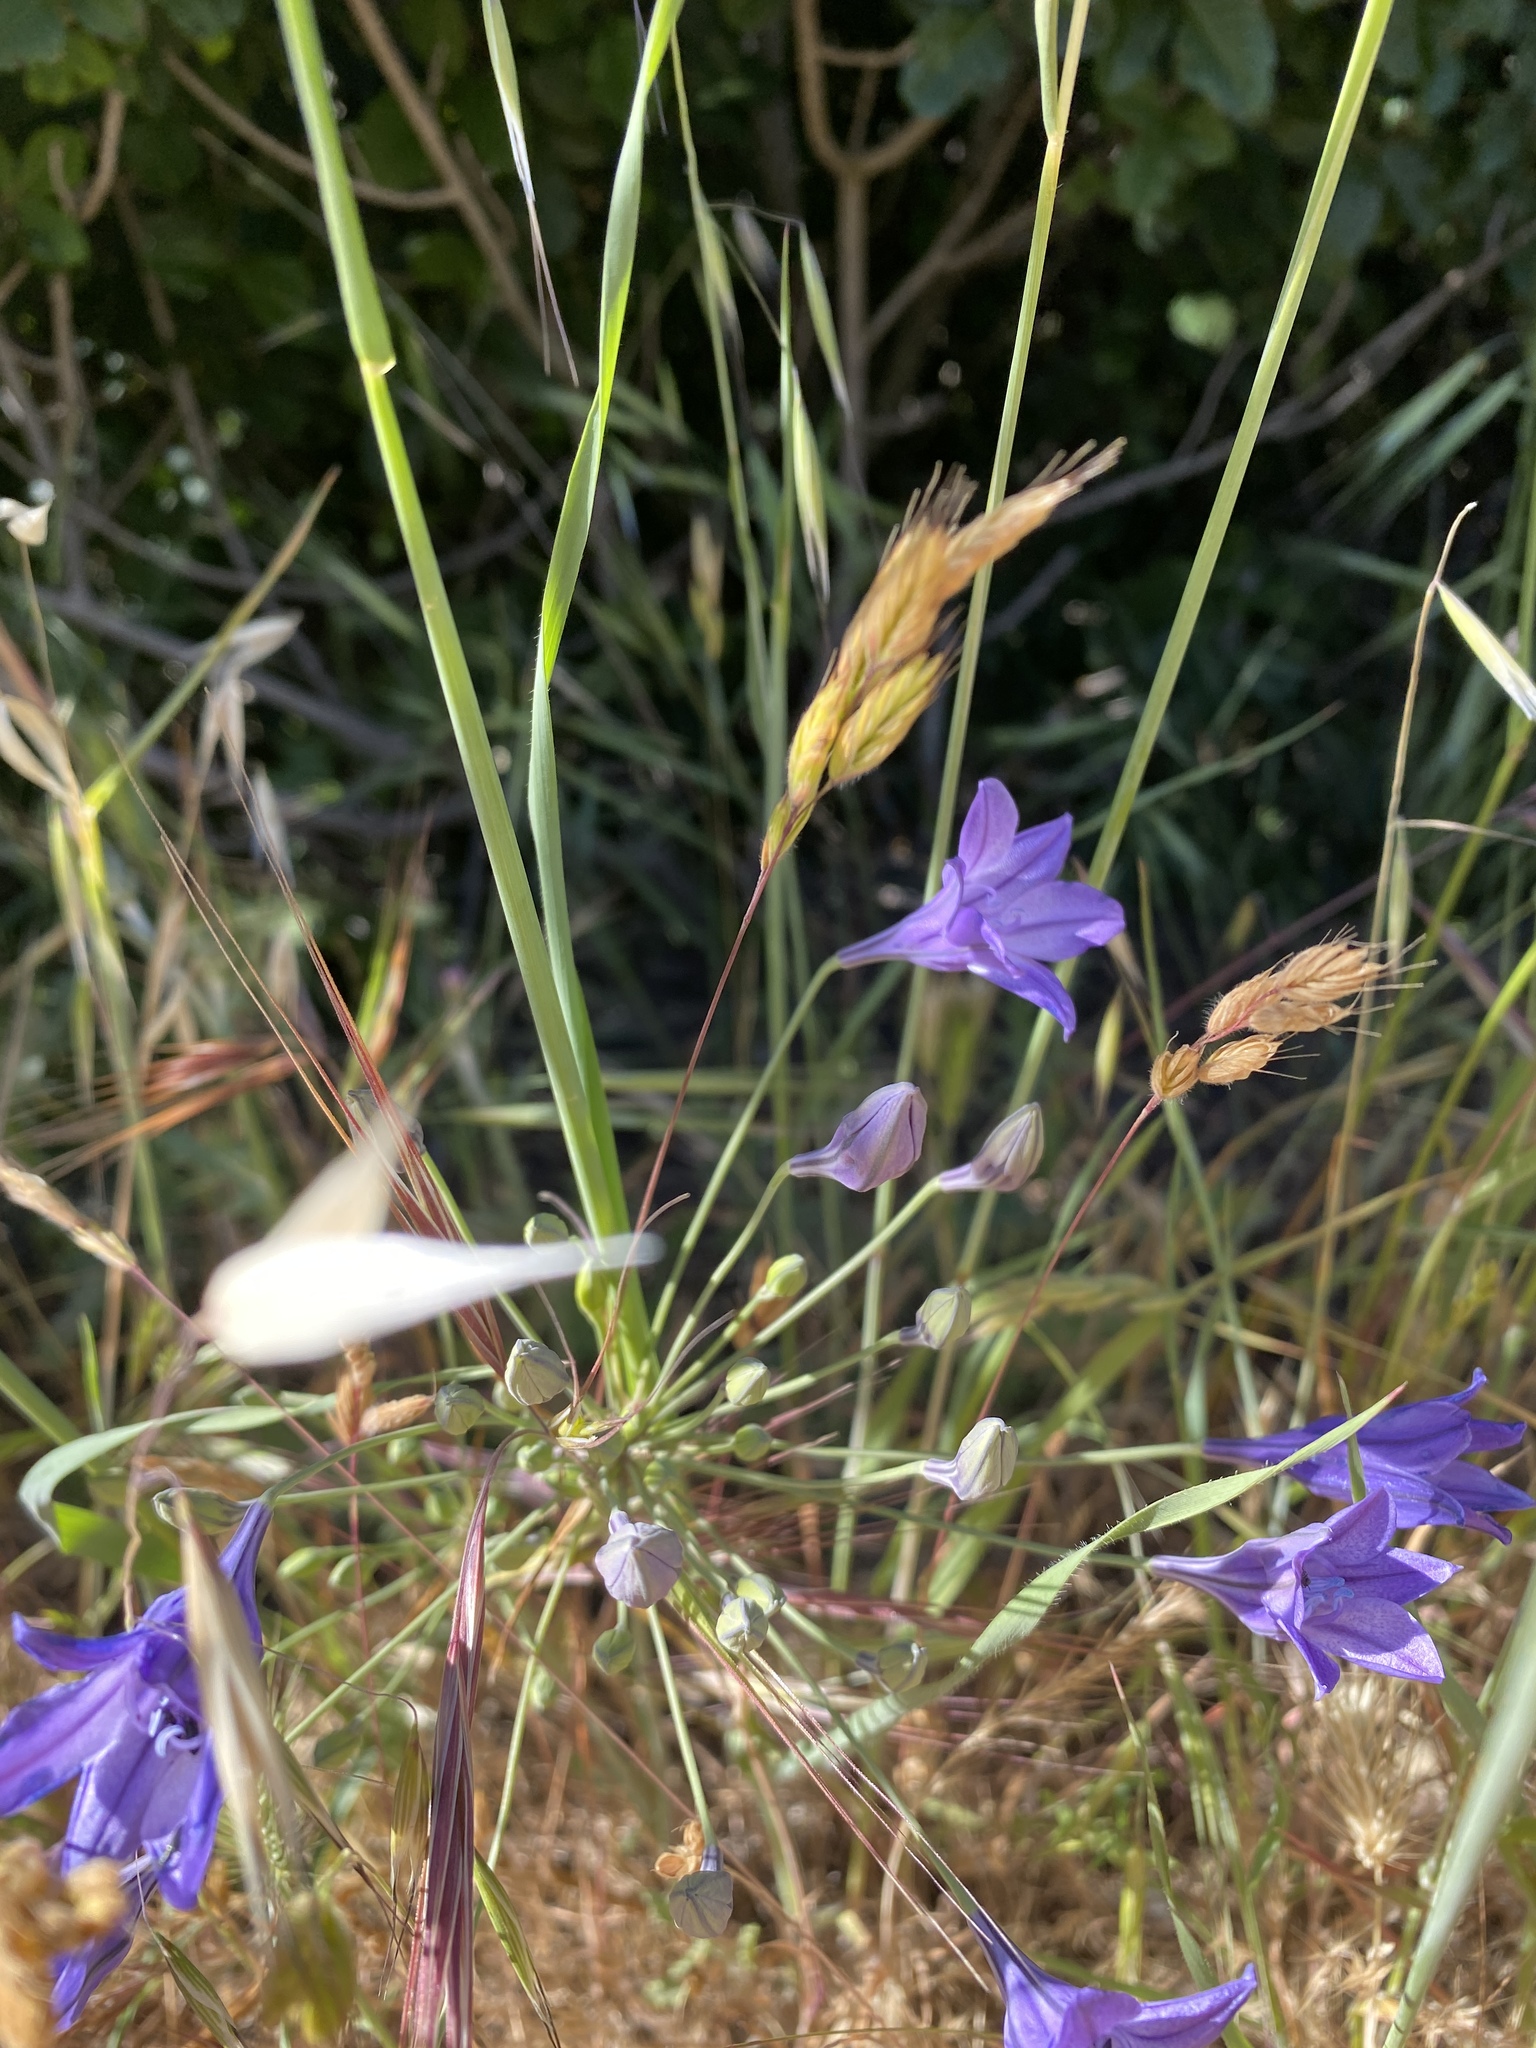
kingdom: Plantae
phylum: Tracheophyta
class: Liliopsida
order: Asparagales
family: Asparagaceae
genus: Triteleia
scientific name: Triteleia laxa
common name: Triplet-lily
